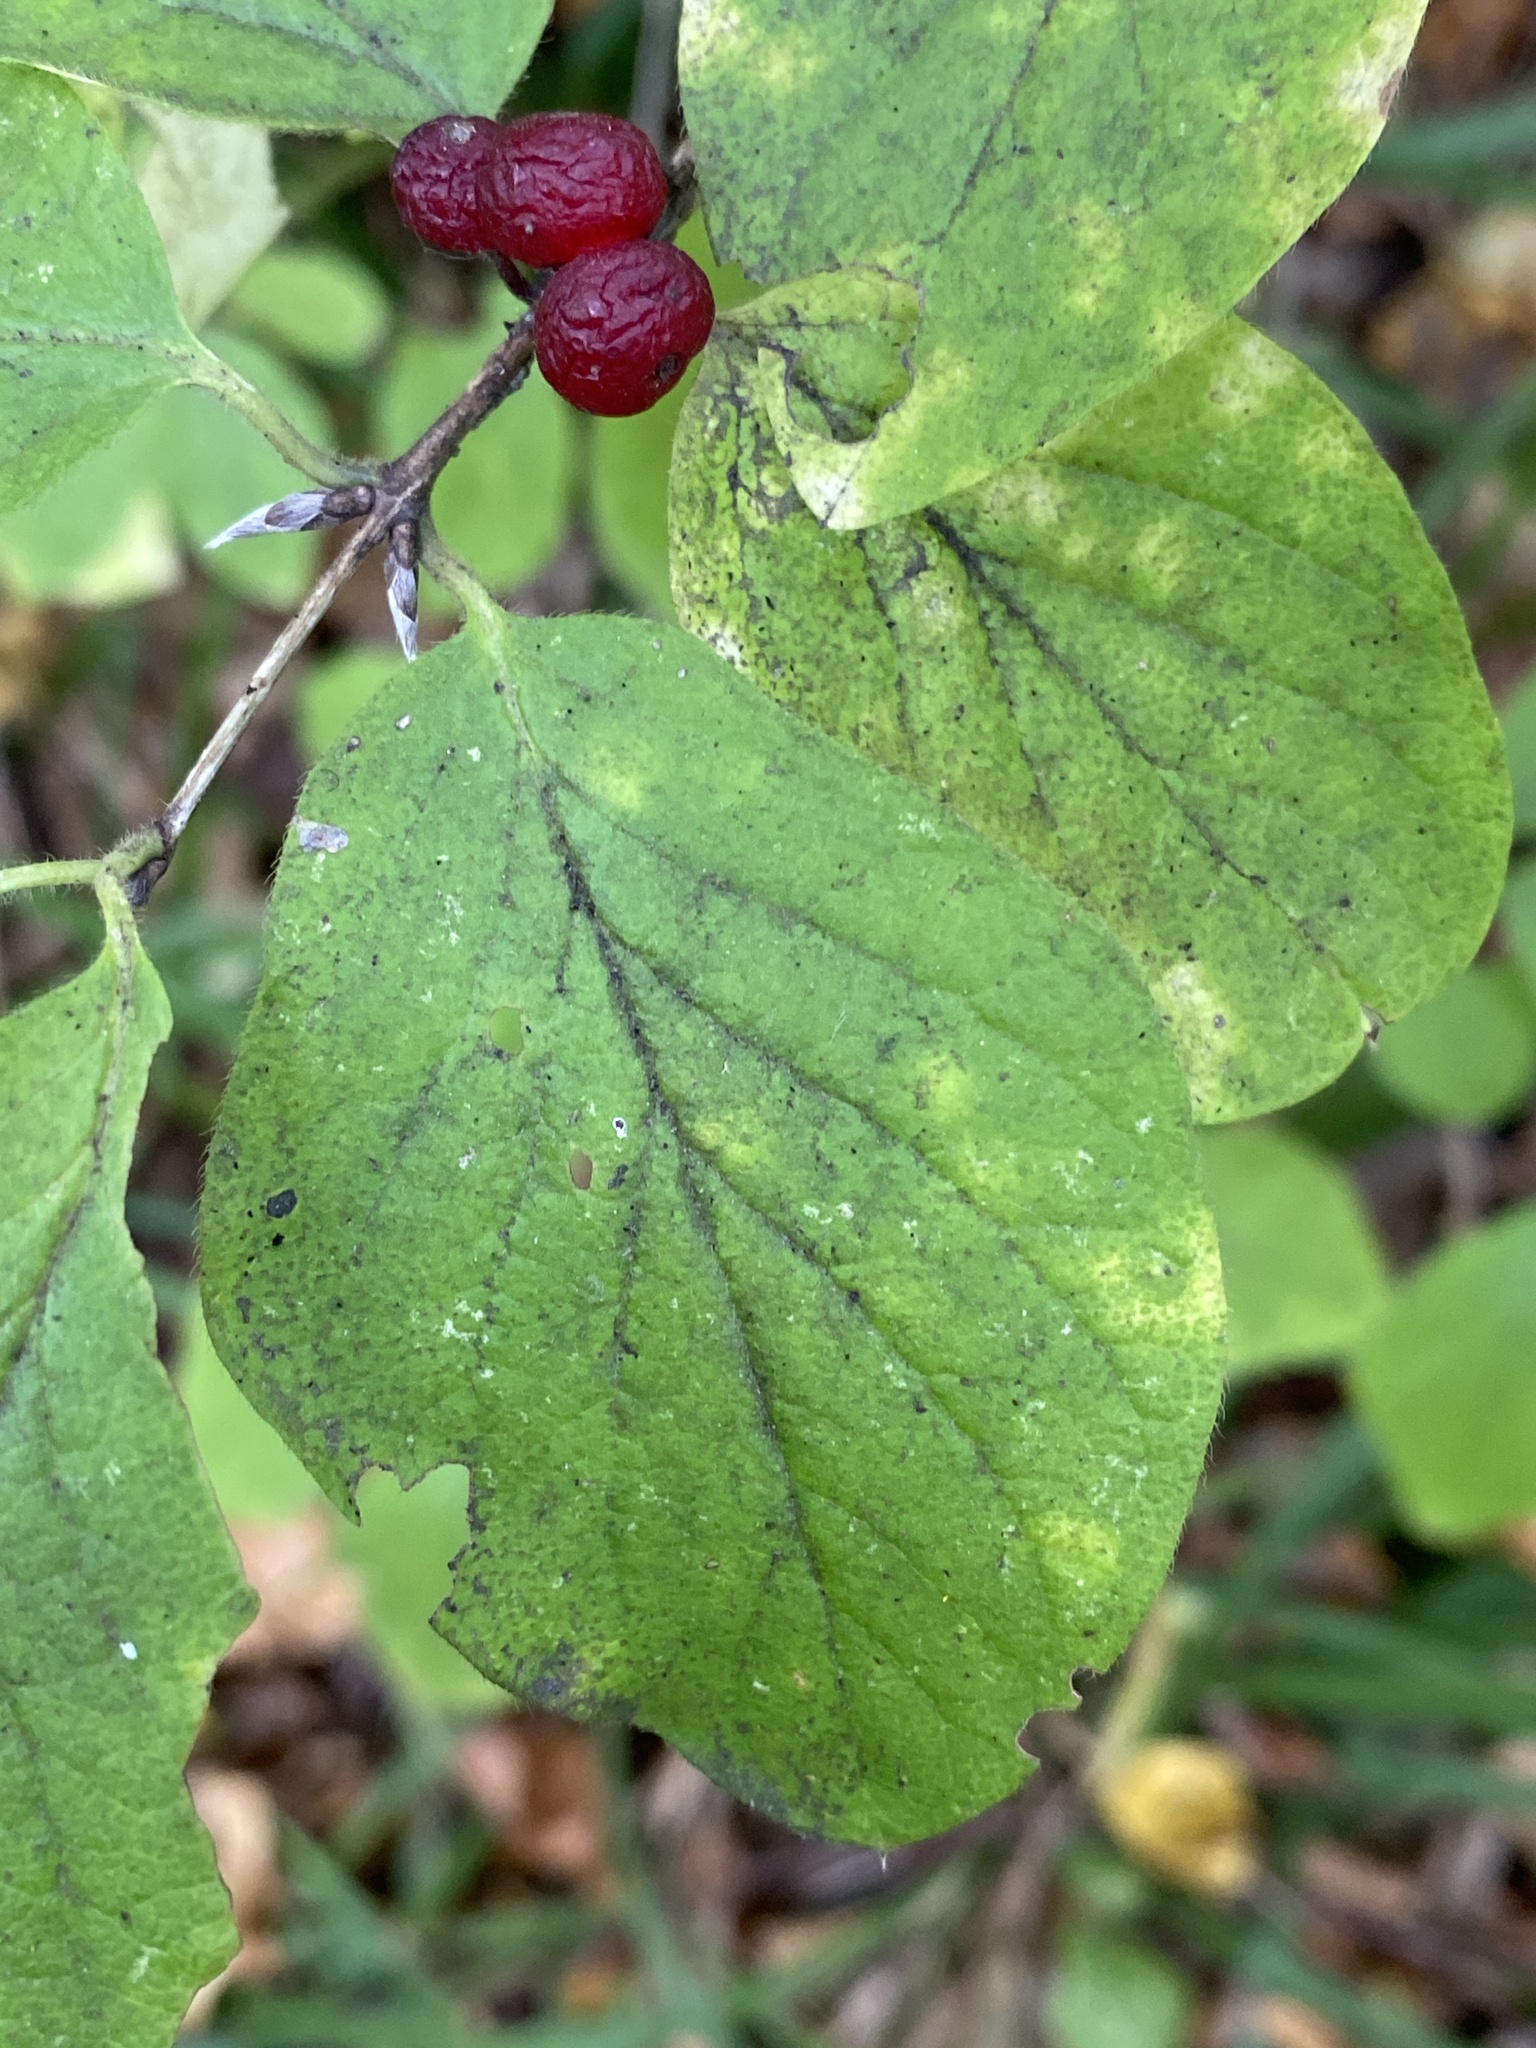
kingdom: Plantae
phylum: Tracheophyta
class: Magnoliopsida
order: Dipsacales
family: Caprifoliaceae
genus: Lonicera
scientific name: Lonicera xylosteum
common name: Fly honeysuckle
